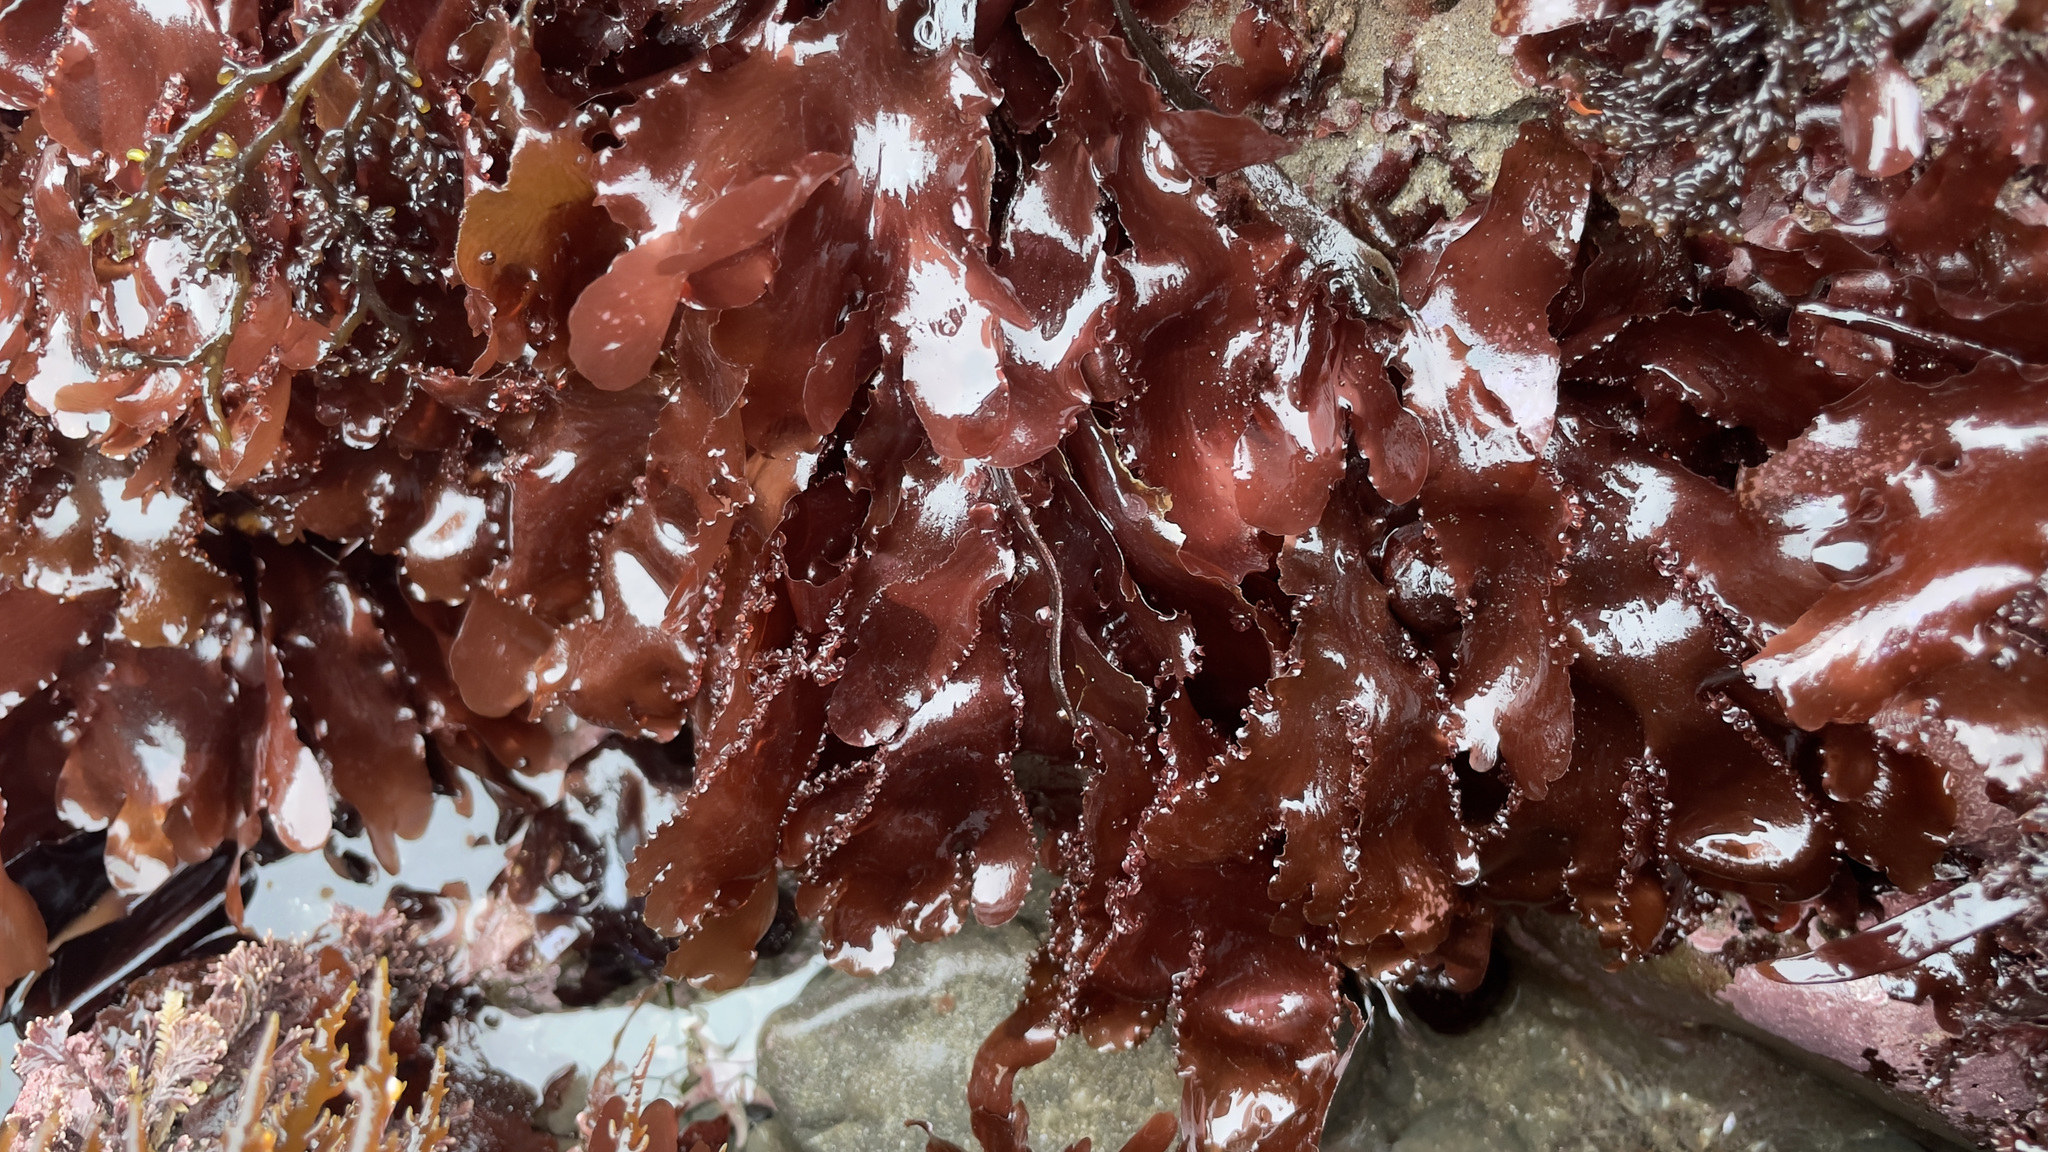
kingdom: Plantae
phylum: Rhodophyta
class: Florideophyceae
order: Ceramiales
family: Delesseriaceae
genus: Cryptopleura
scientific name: Cryptopleura ruprechtiana
